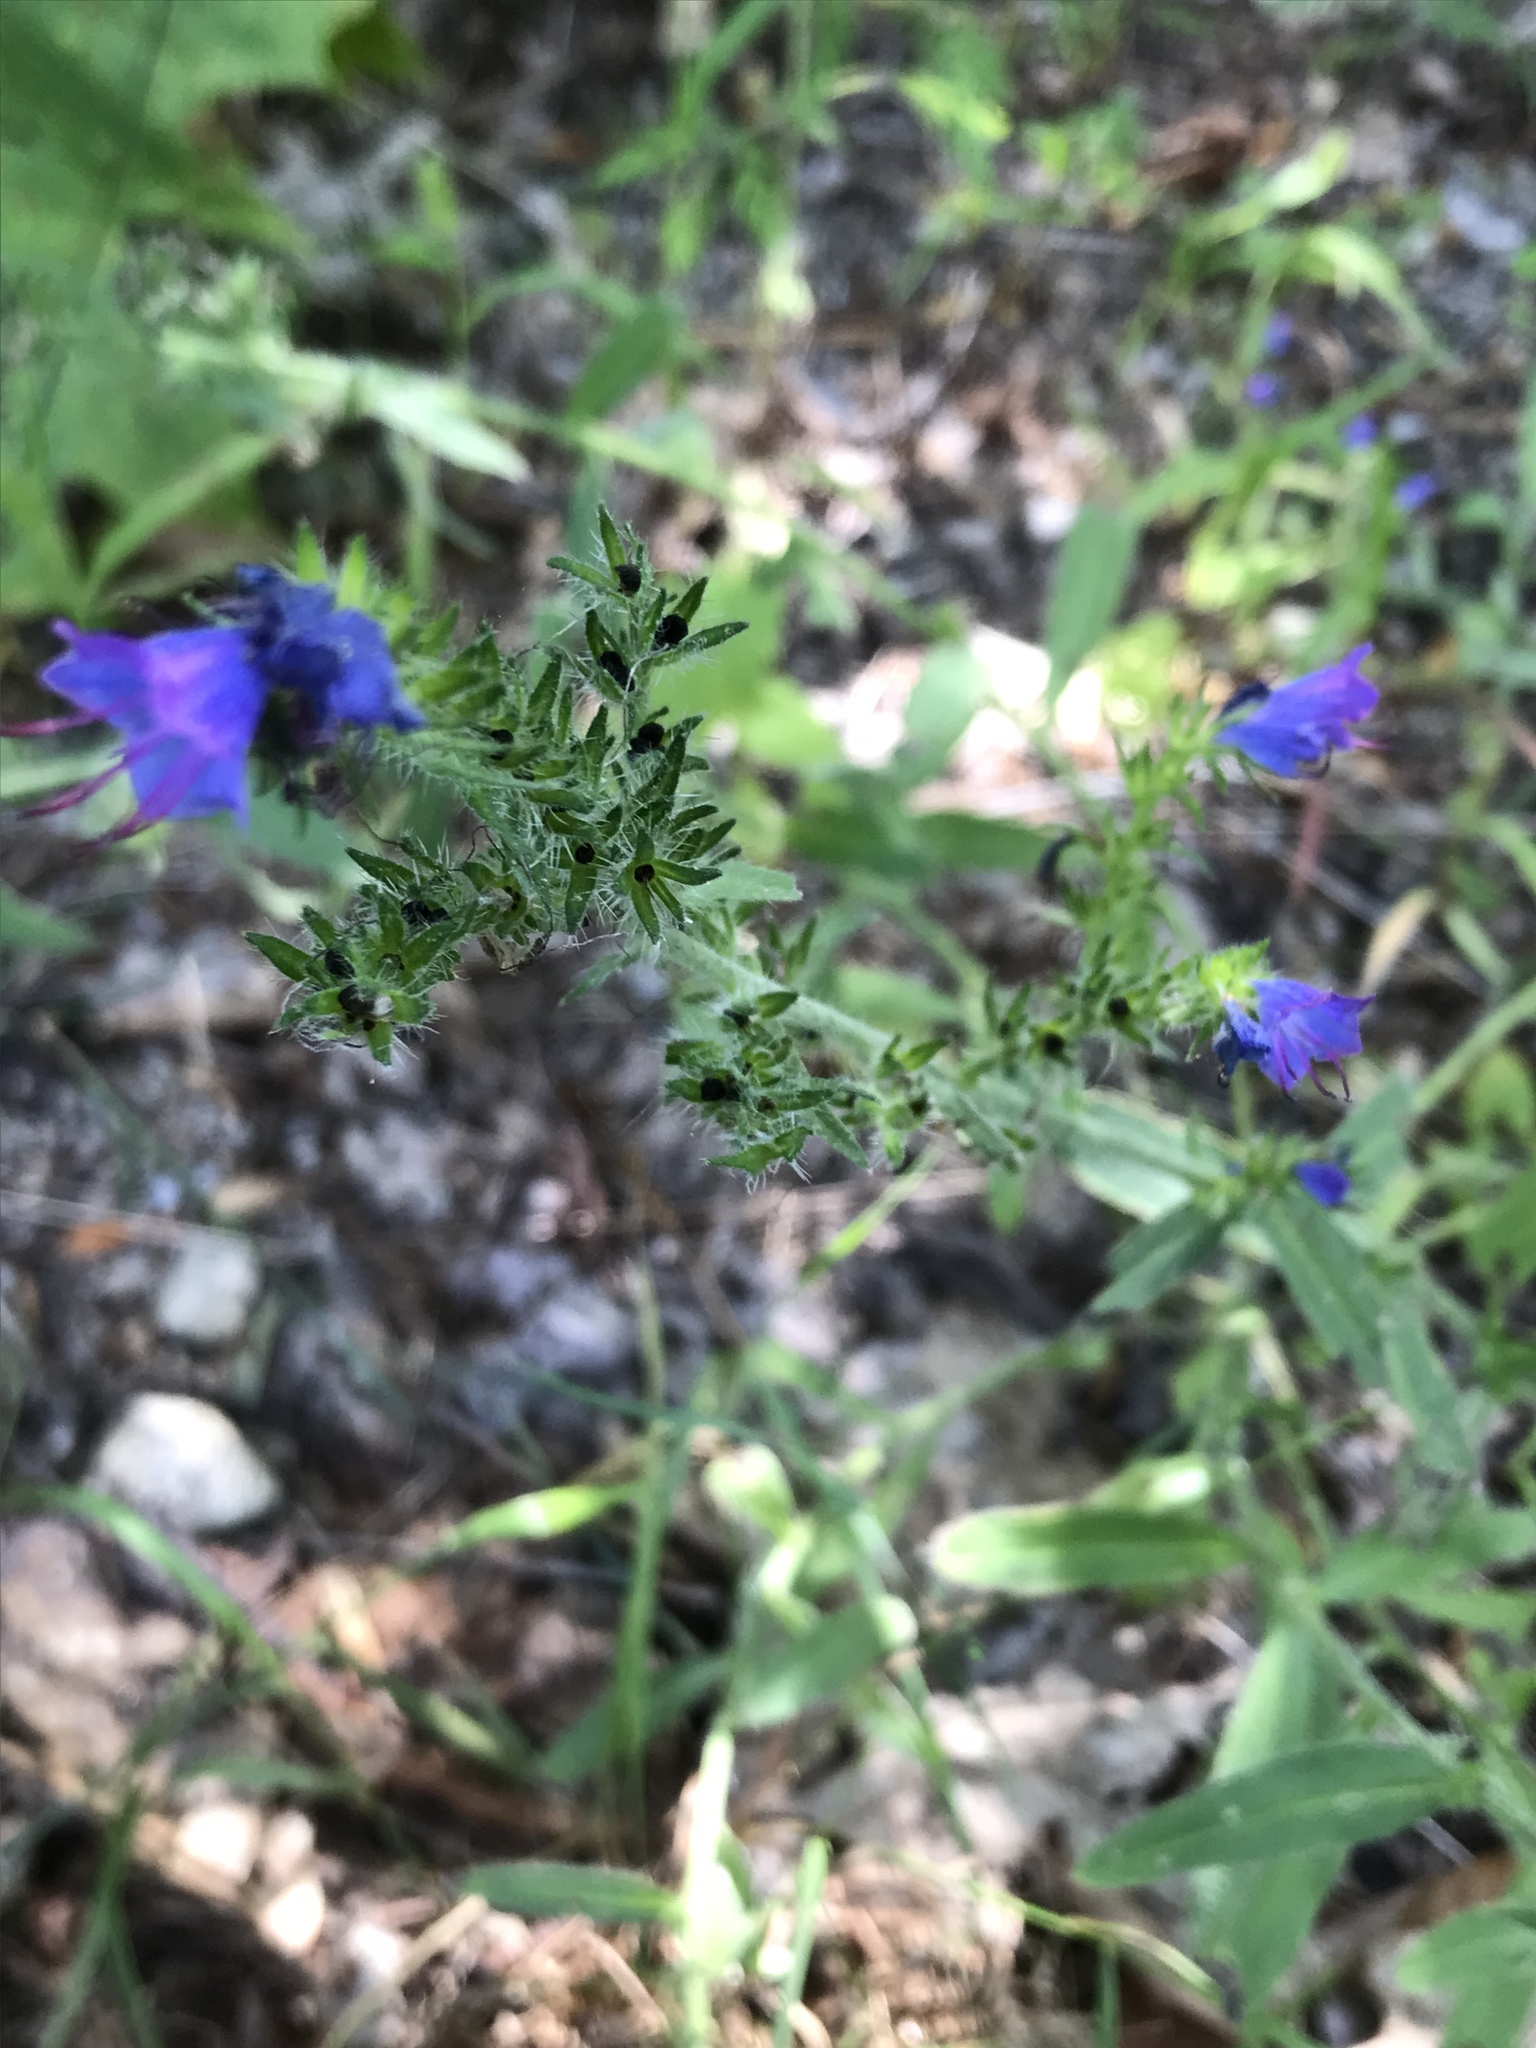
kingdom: Plantae
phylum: Tracheophyta
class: Magnoliopsida
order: Boraginales
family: Boraginaceae
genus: Echium
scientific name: Echium vulgare
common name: Common viper's bugloss
